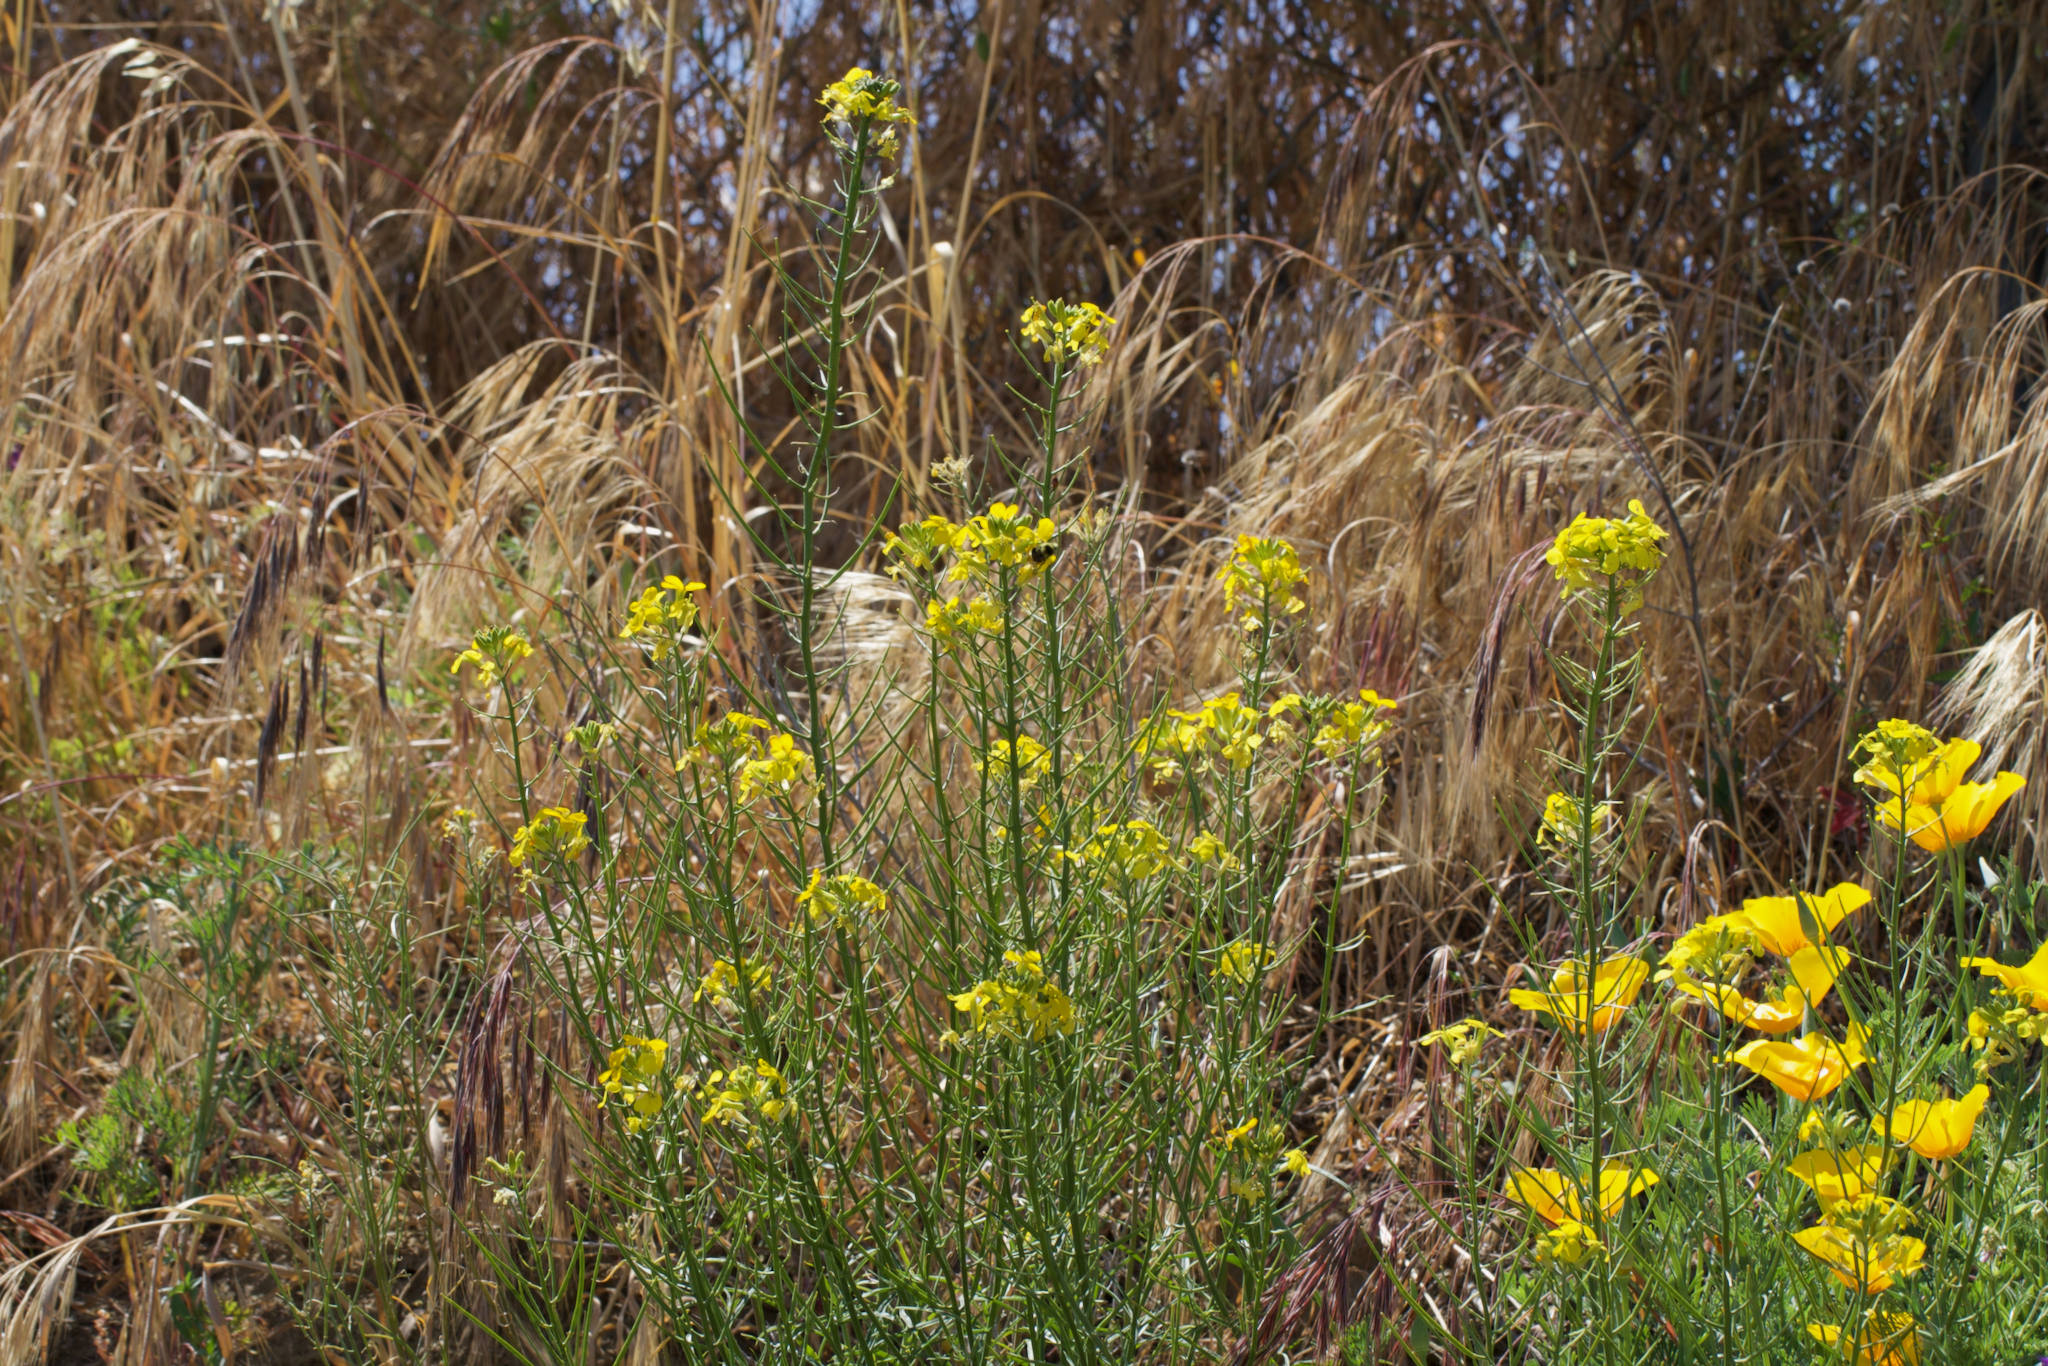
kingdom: Plantae
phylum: Tracheophyta
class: Magnoliopsida
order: Brassicales
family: Brassicaceae
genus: Erysimum
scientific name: Erysimum capitatum
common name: Western wallflower
